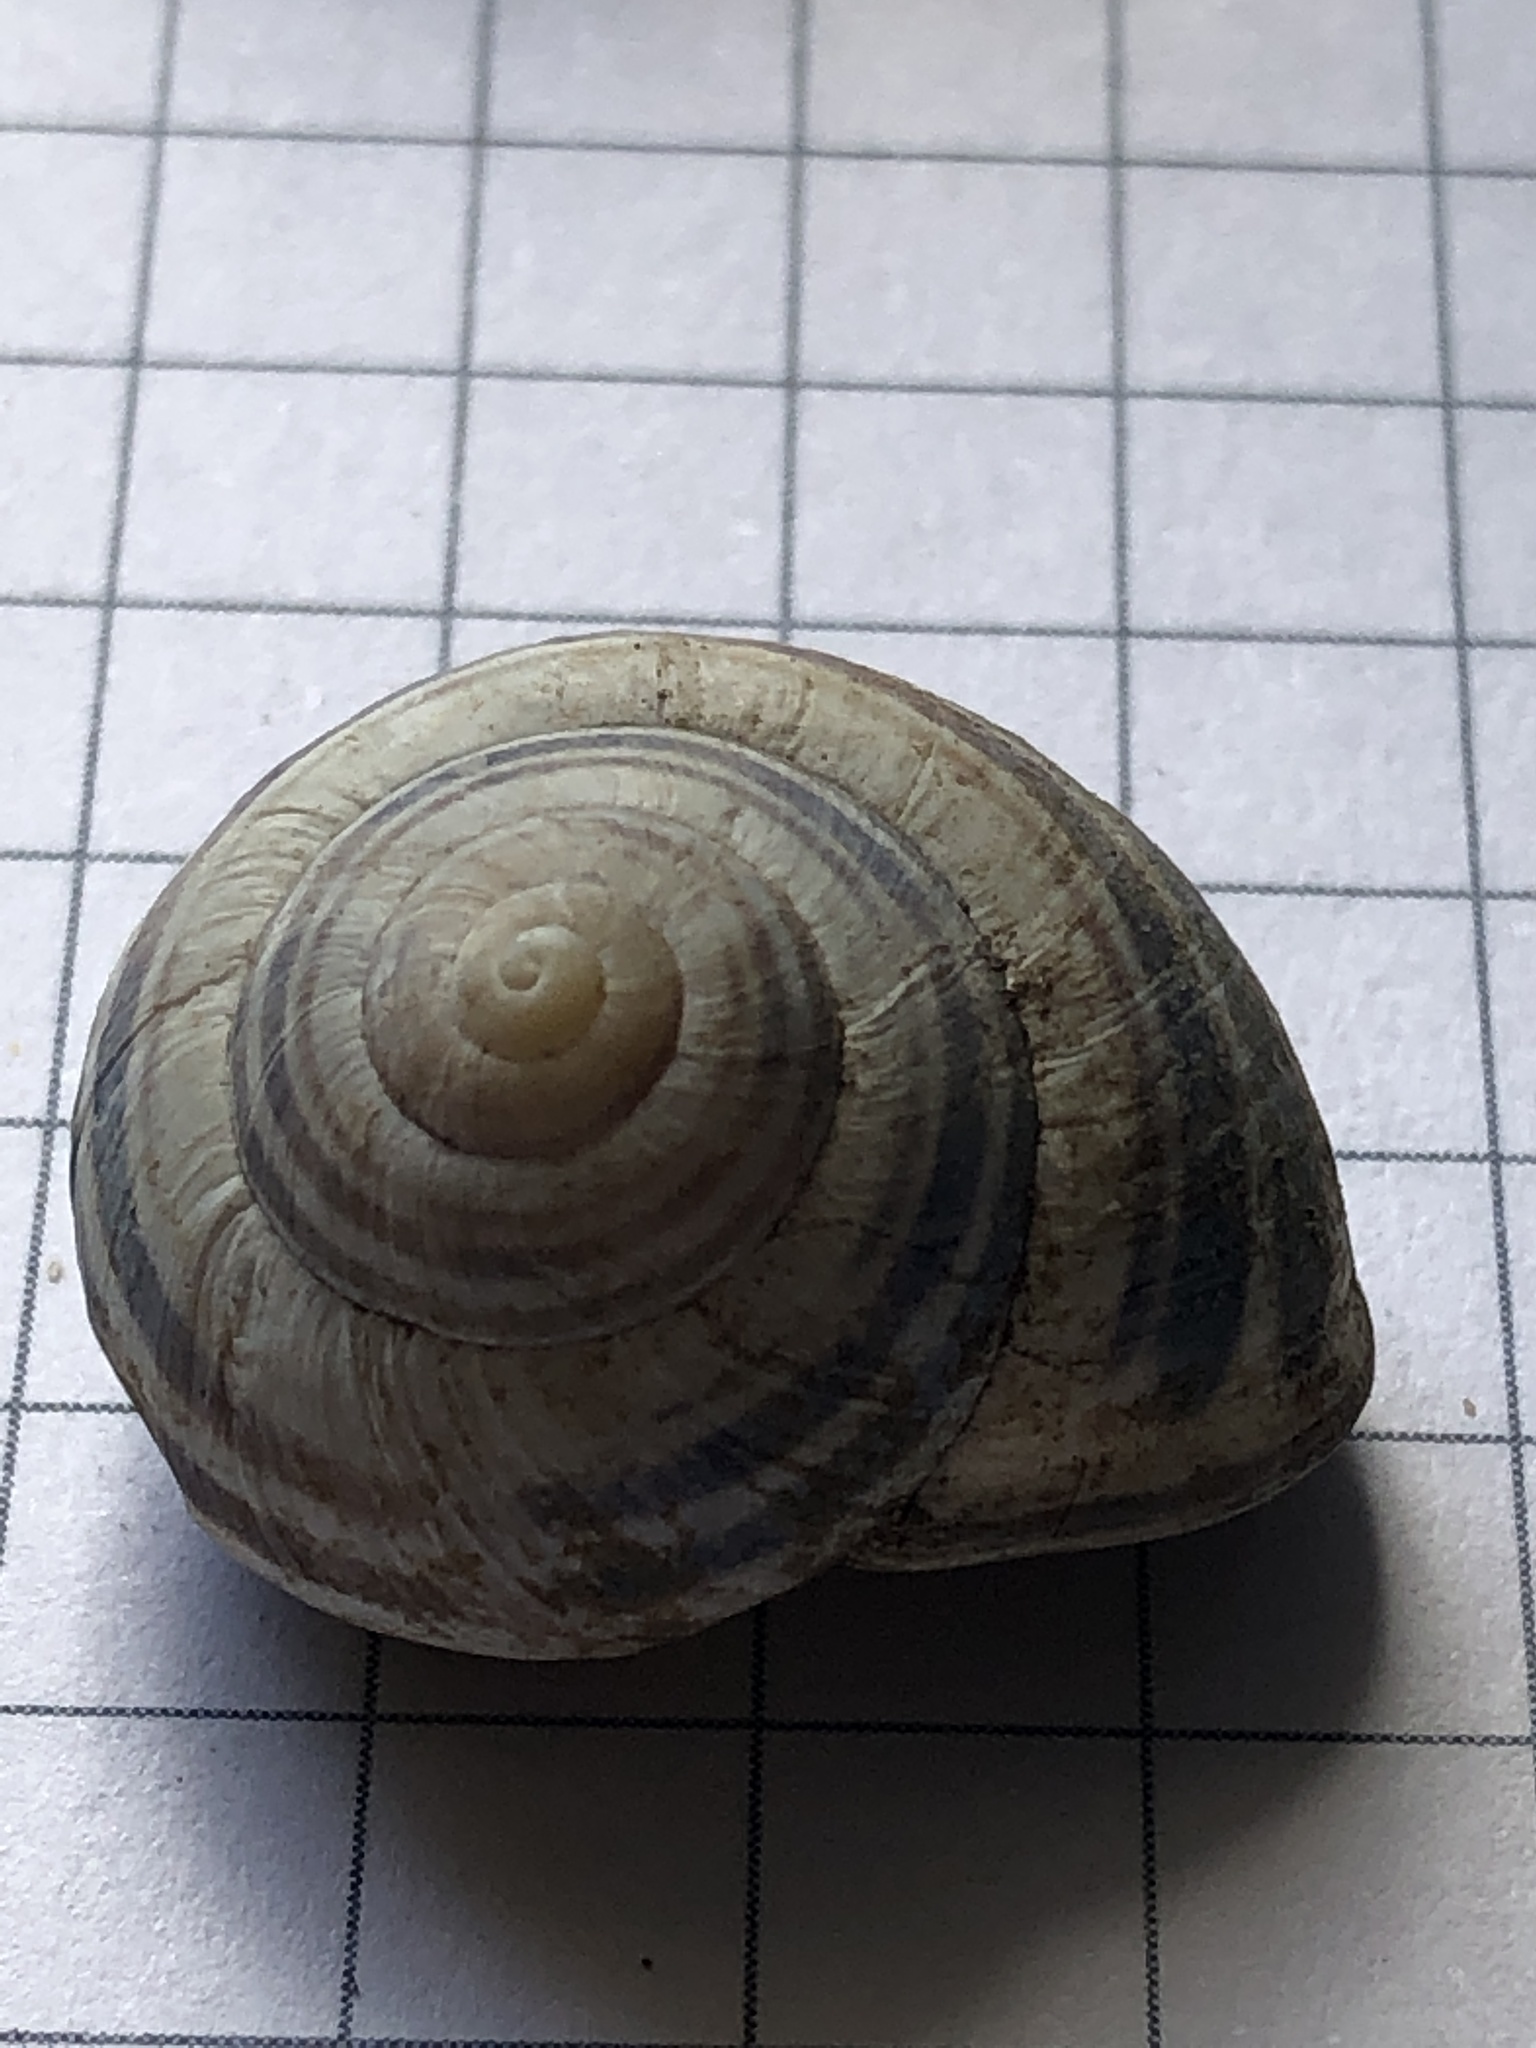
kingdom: Animalia
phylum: Mollusca
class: Gastropoda
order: Stylommatophora
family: Helicidae
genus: Cepaea
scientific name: Cepaea nemoralis
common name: Grovesnail
